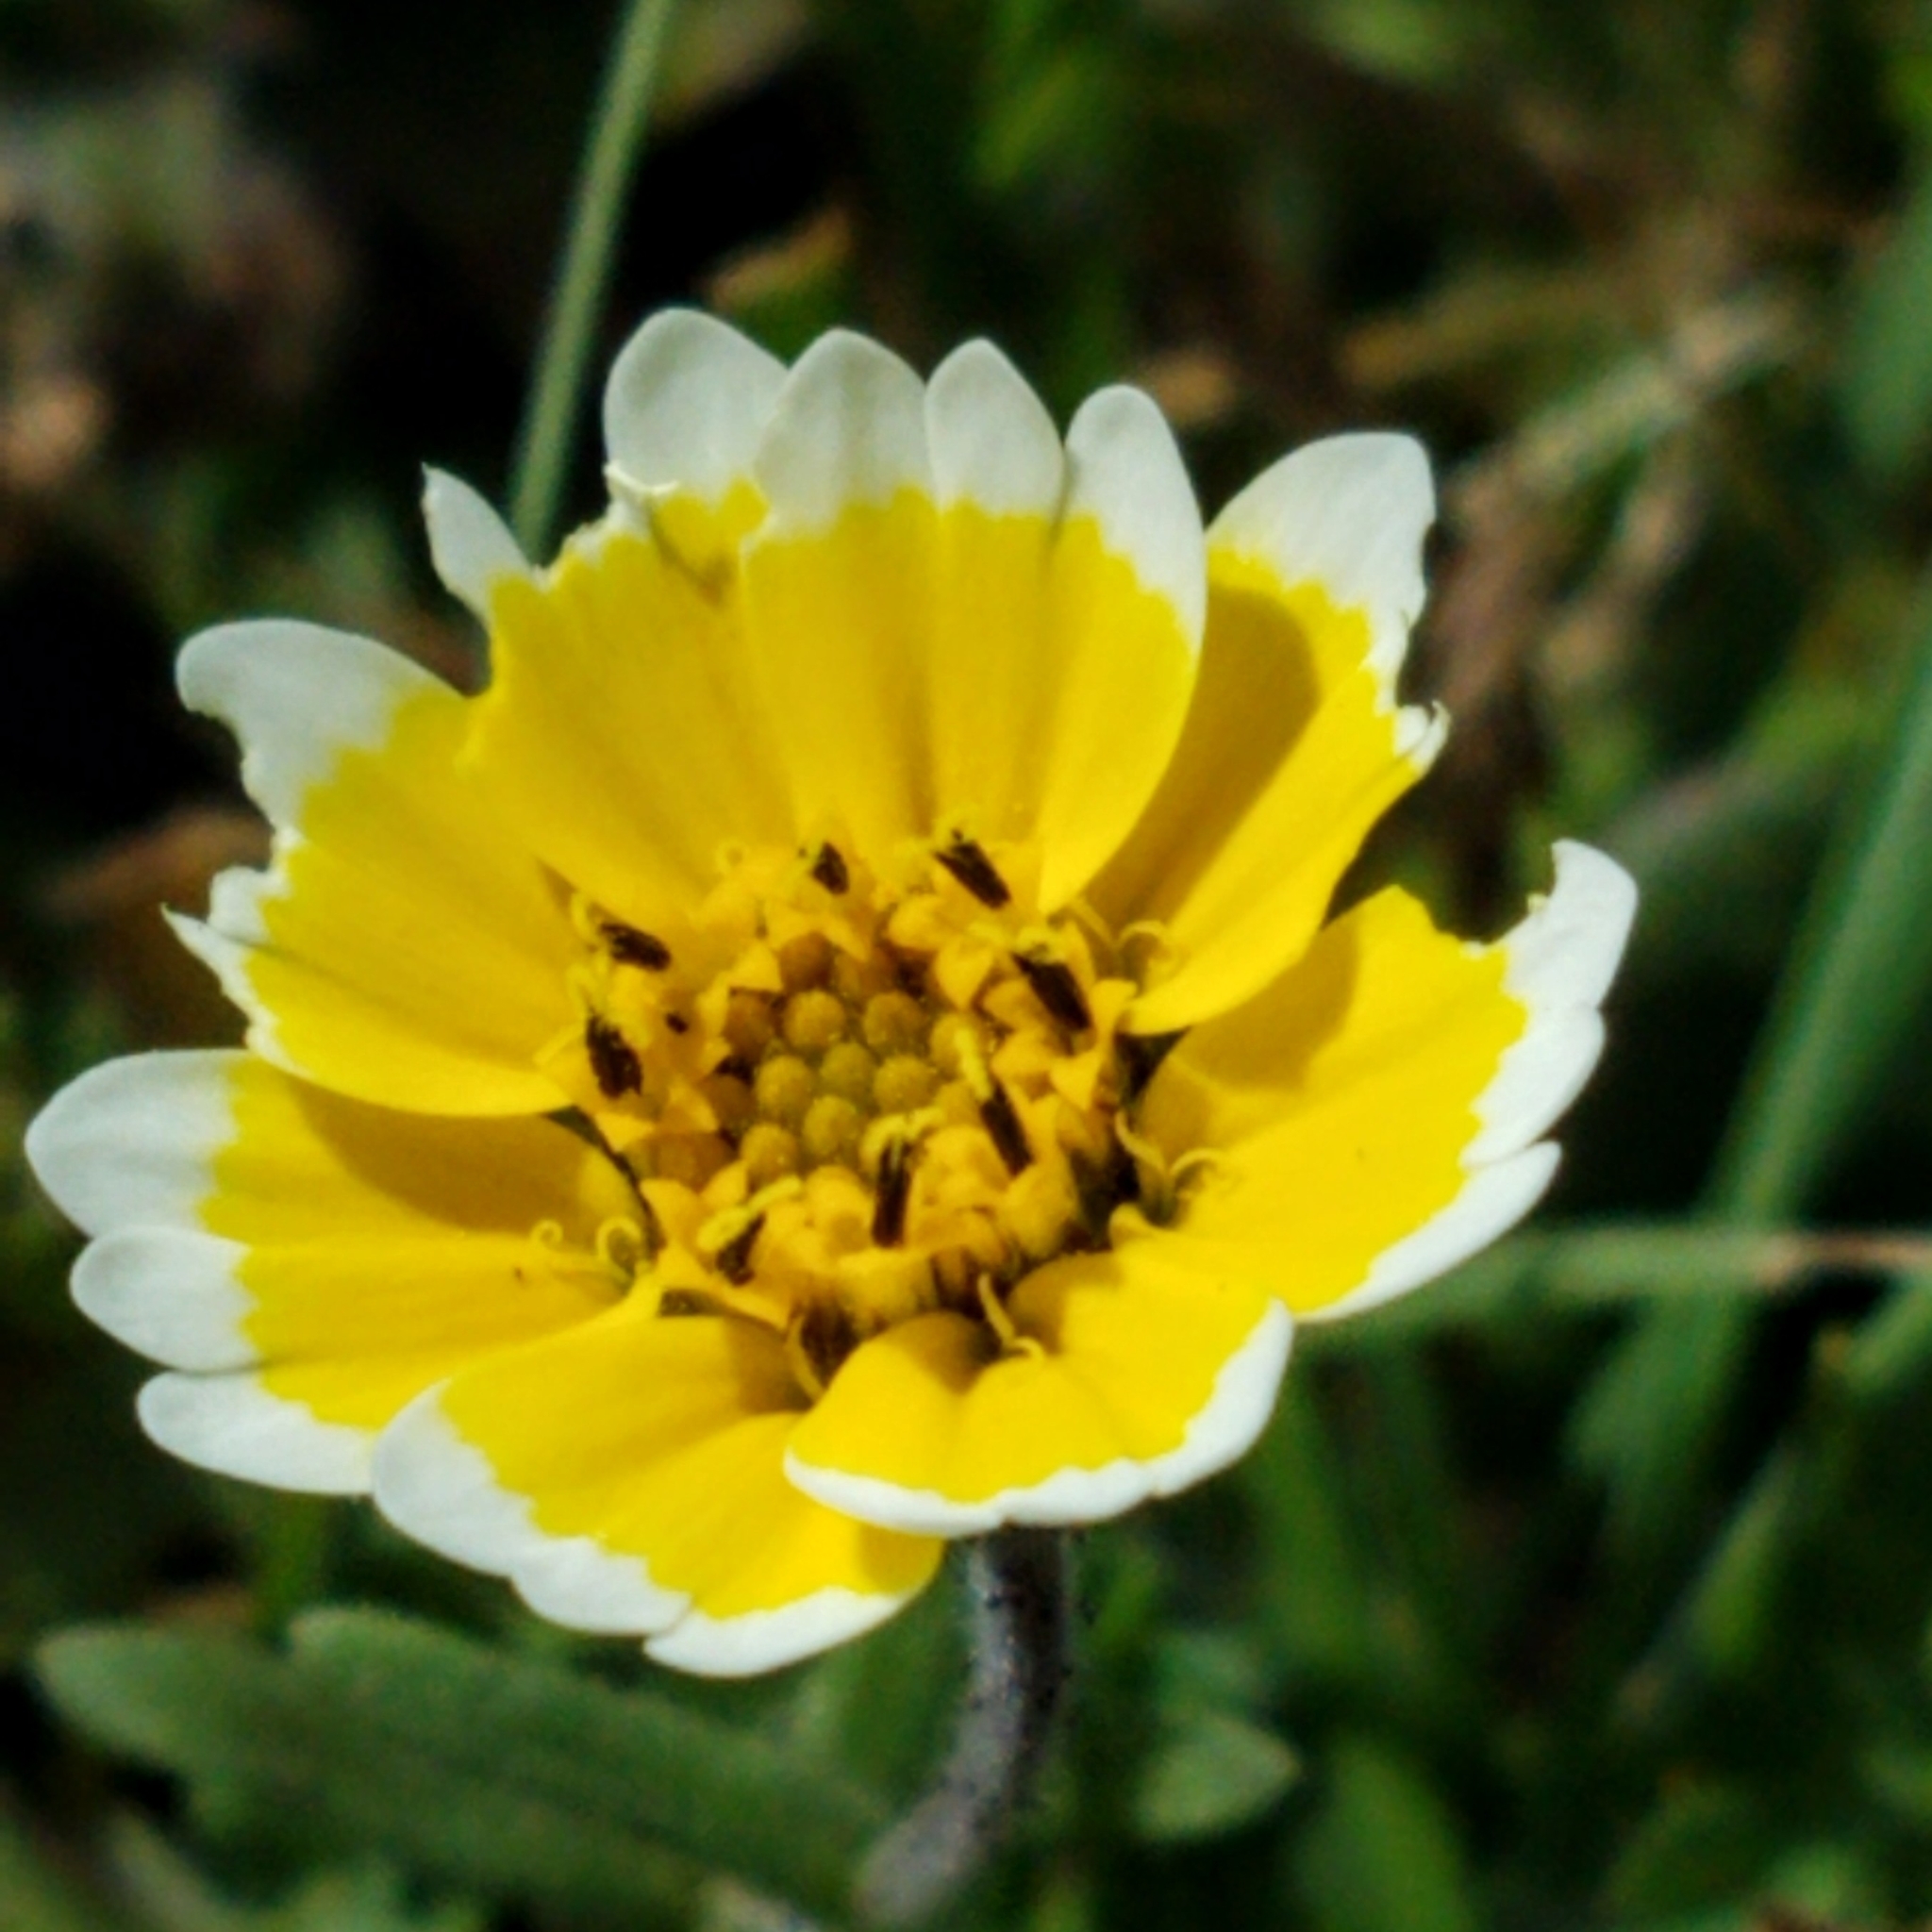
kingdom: Plantae
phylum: Tracheophyta
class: Magnoliopsida
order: Asterales
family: Asteraceae
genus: Layia
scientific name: Layia platyglossa
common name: Tidy-tips
